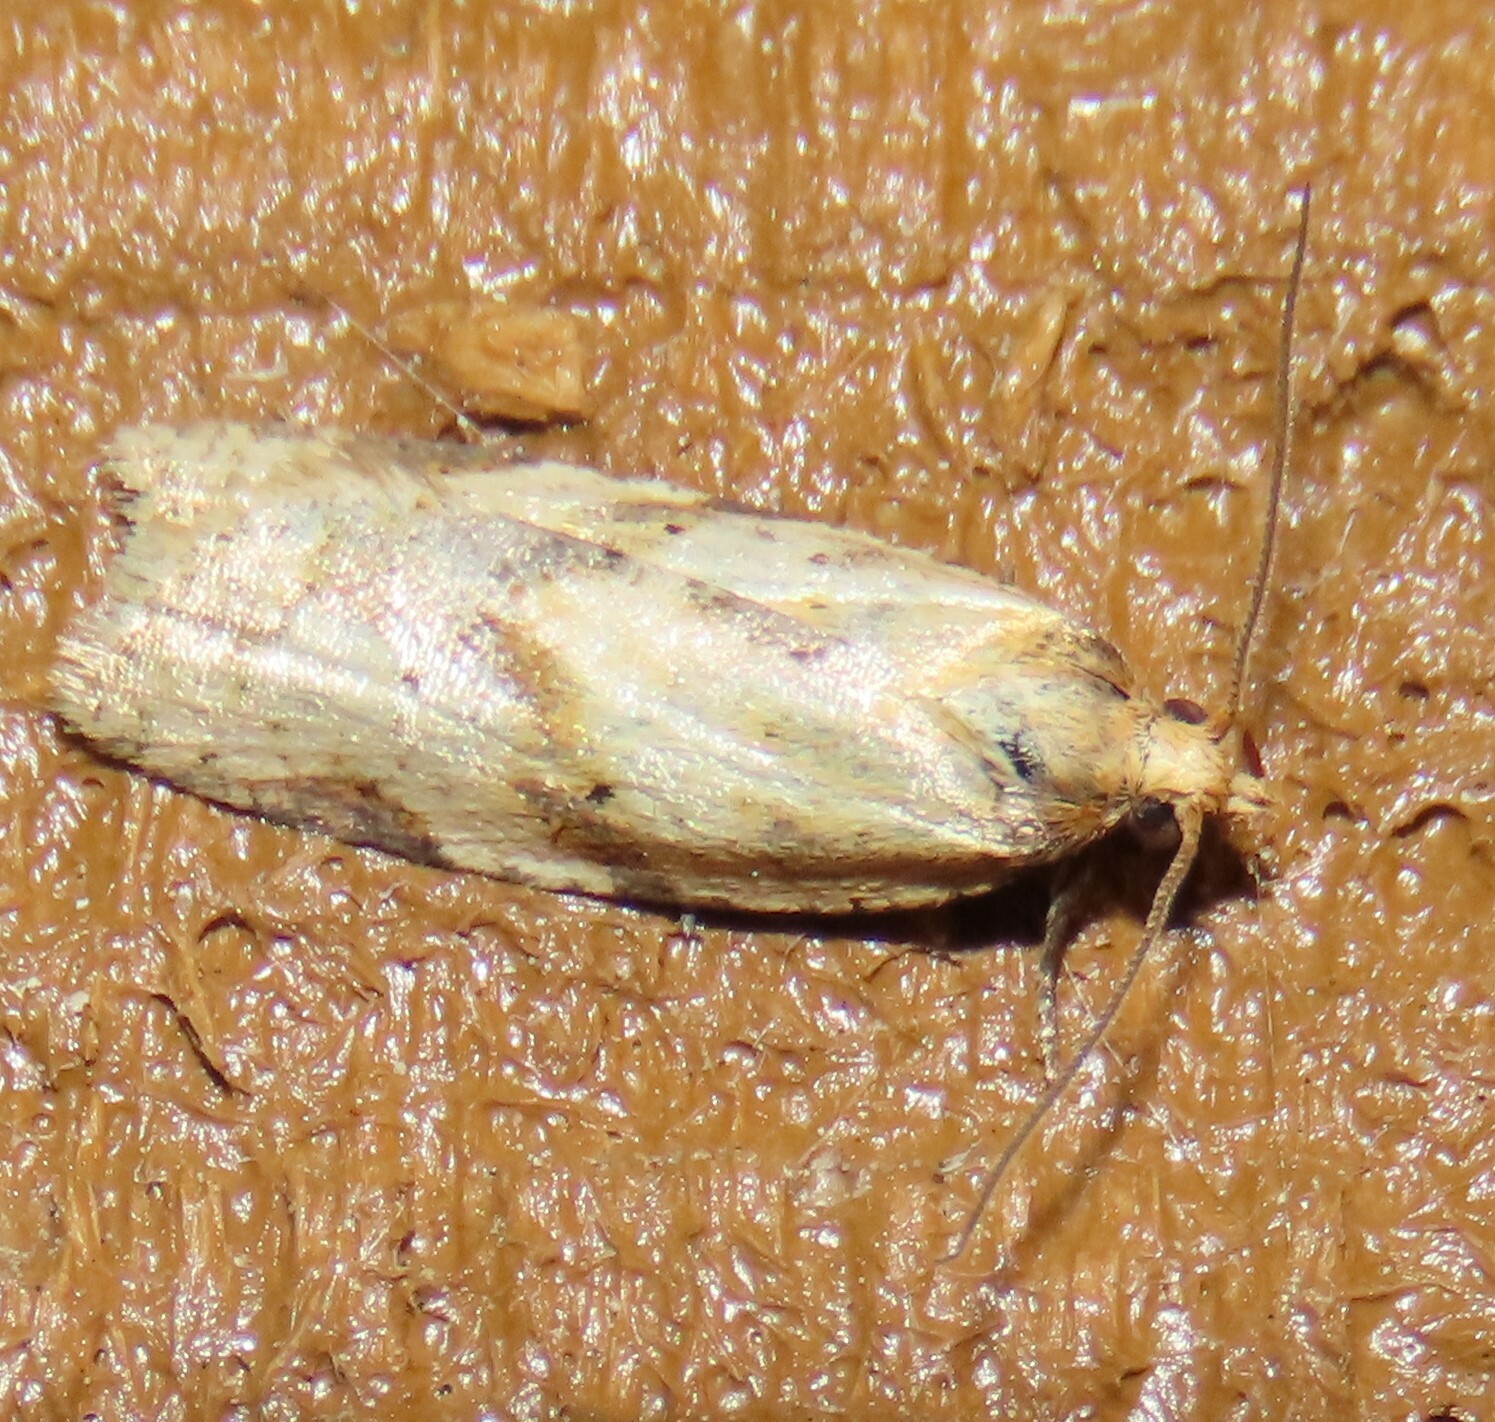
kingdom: Animalia
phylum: Arthropoda
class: Insecta
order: Lepidoptera
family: Tortricidae
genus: Clepsis
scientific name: Clepsis
